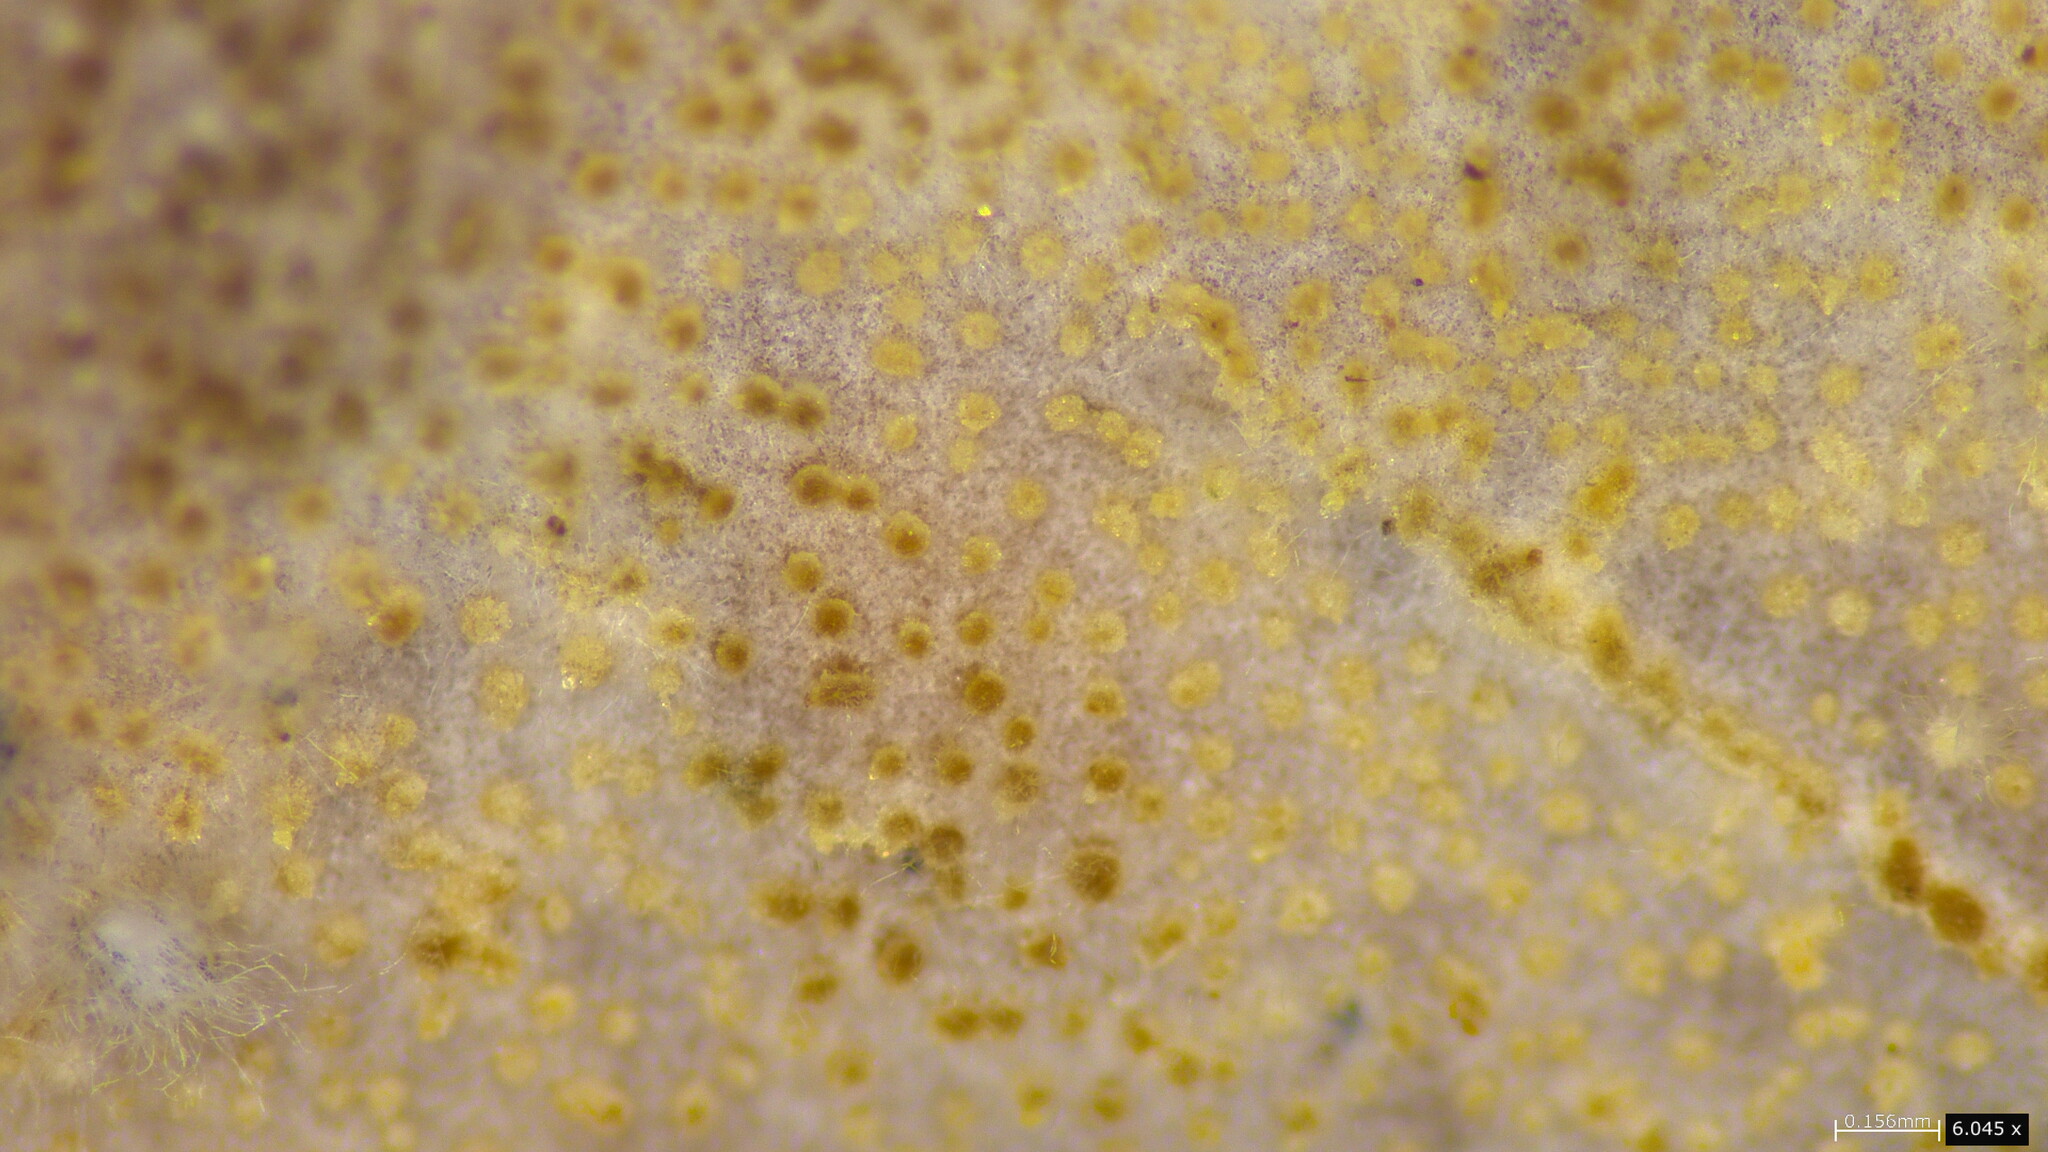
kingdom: Fungi
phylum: Basidiomycota
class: Agaricomycetes
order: Auriculariales
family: Auriculariaceae
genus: Heterochaete
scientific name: Heterochaete delicata
